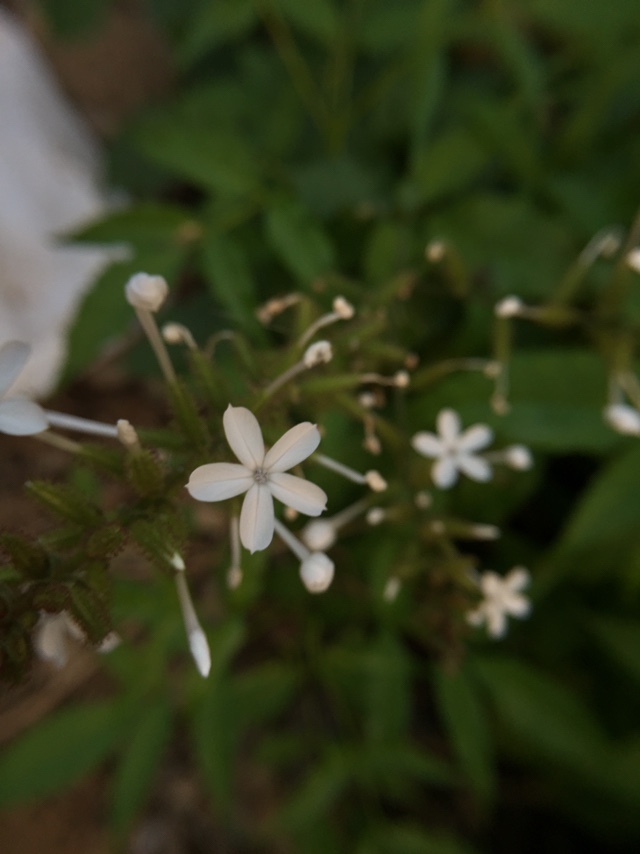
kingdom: Plantae
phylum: Tracheophyta
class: Magnoliopsida
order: Caryophyllales
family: Plumbaginaceae
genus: Plumbago
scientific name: Plumbago zeylanica
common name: Doctorbush
